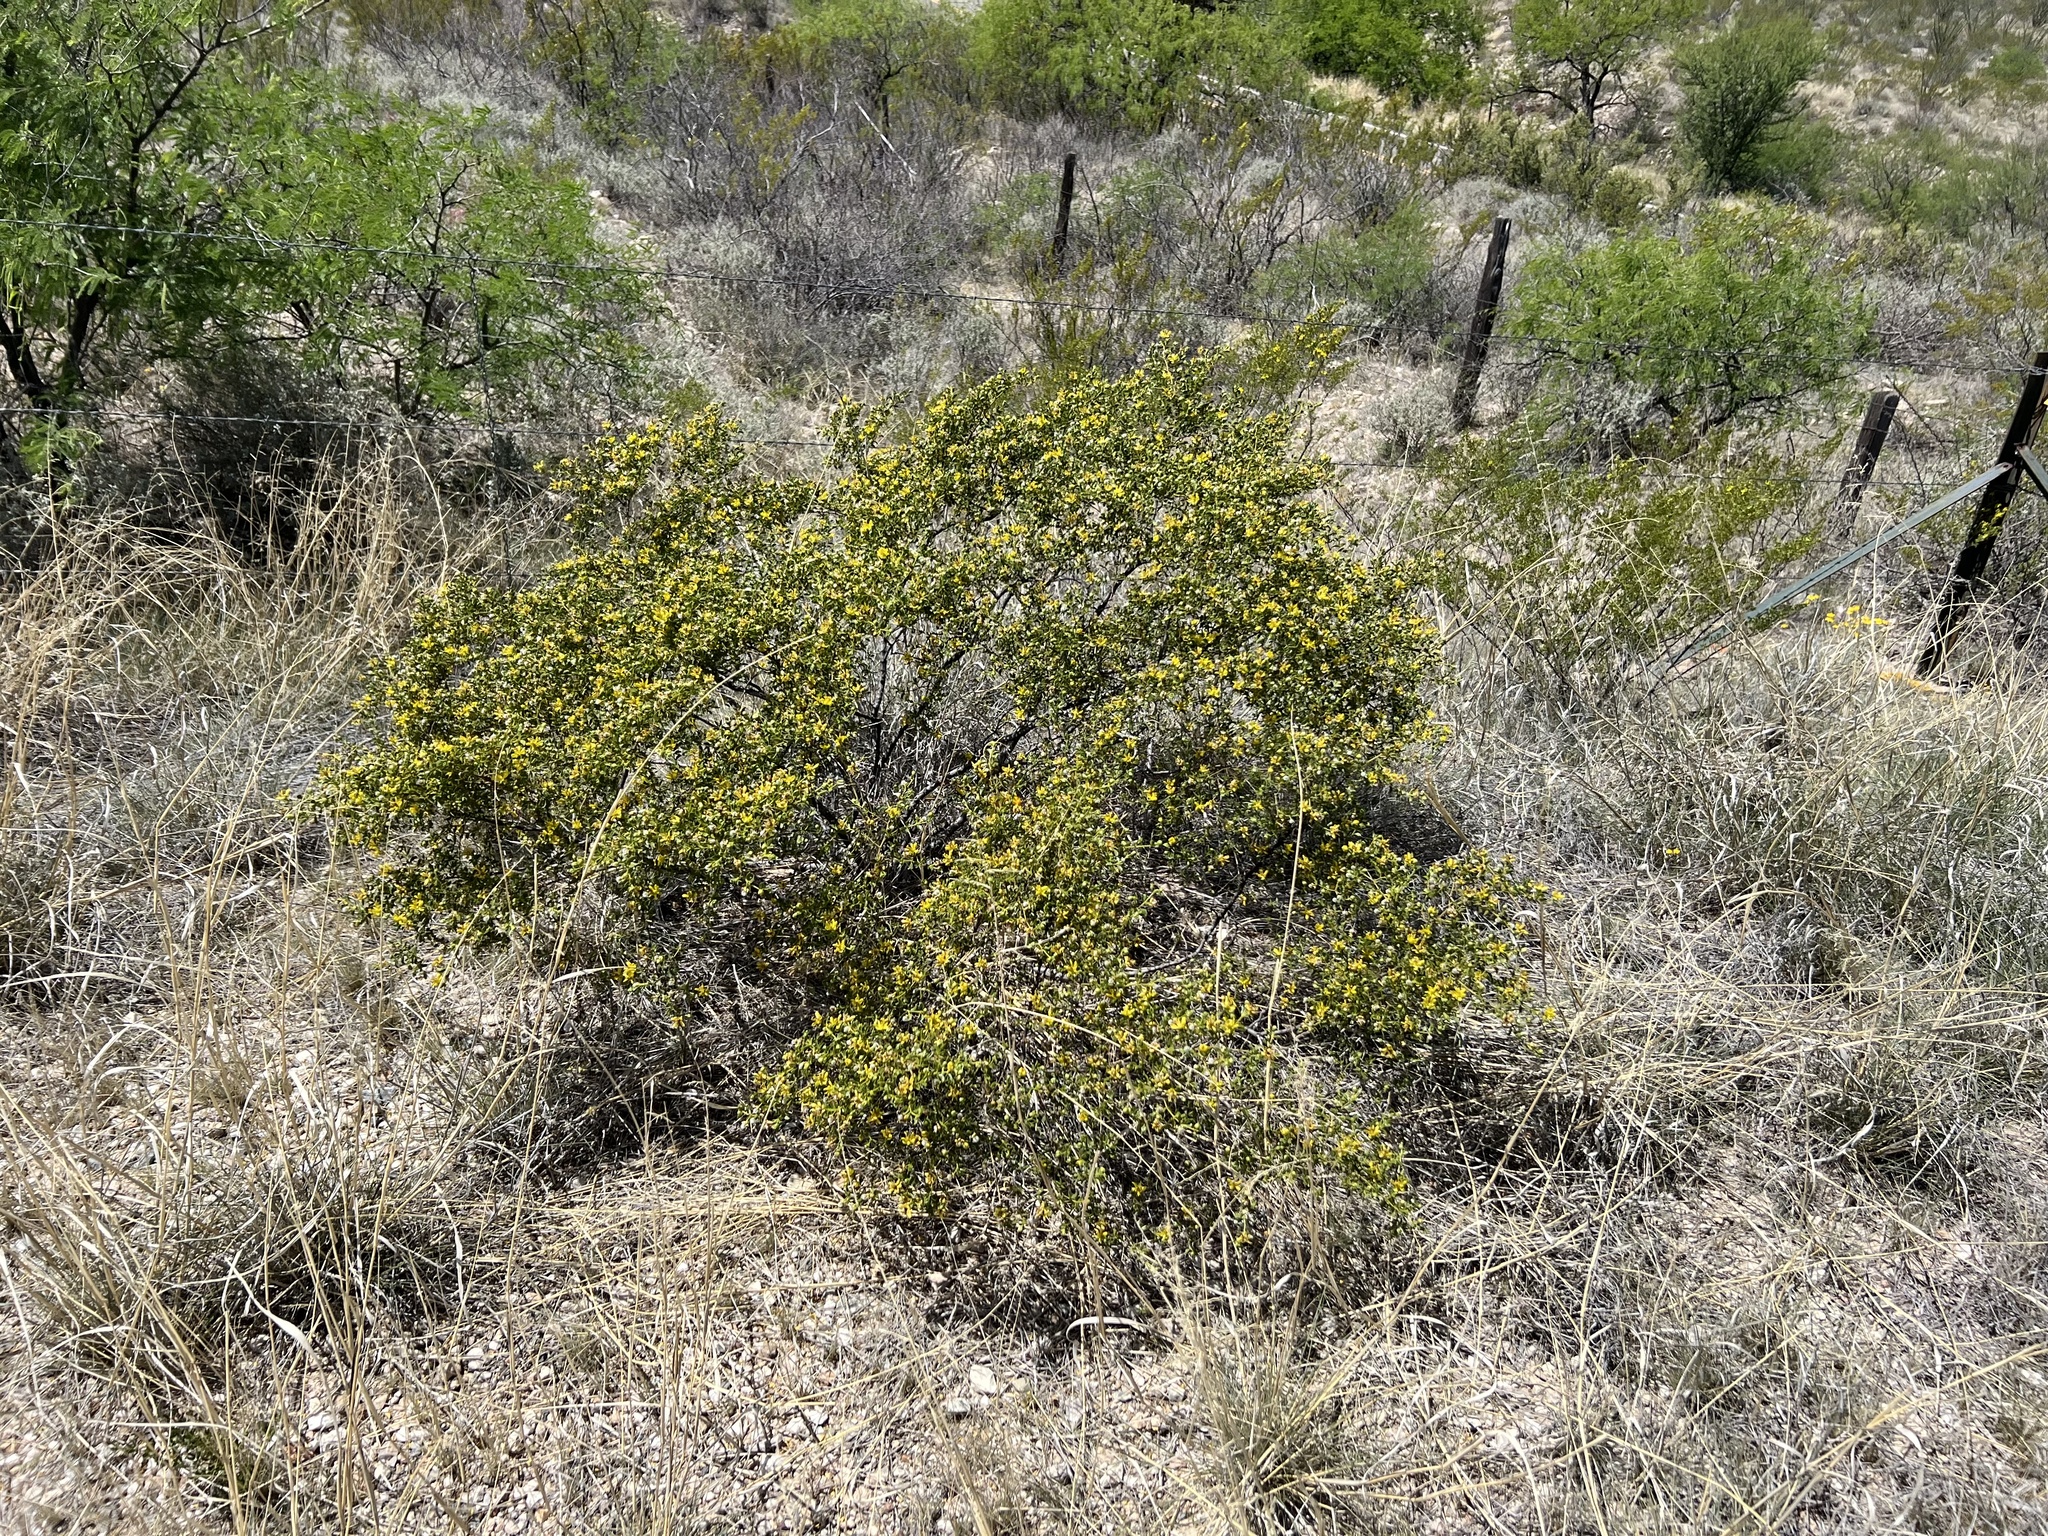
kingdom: Plantae
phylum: Tracheophyta
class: Magnoliopsida
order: Zygophyllales
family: Zygophyllaceae
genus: Larrea
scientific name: Larrea tridentata
